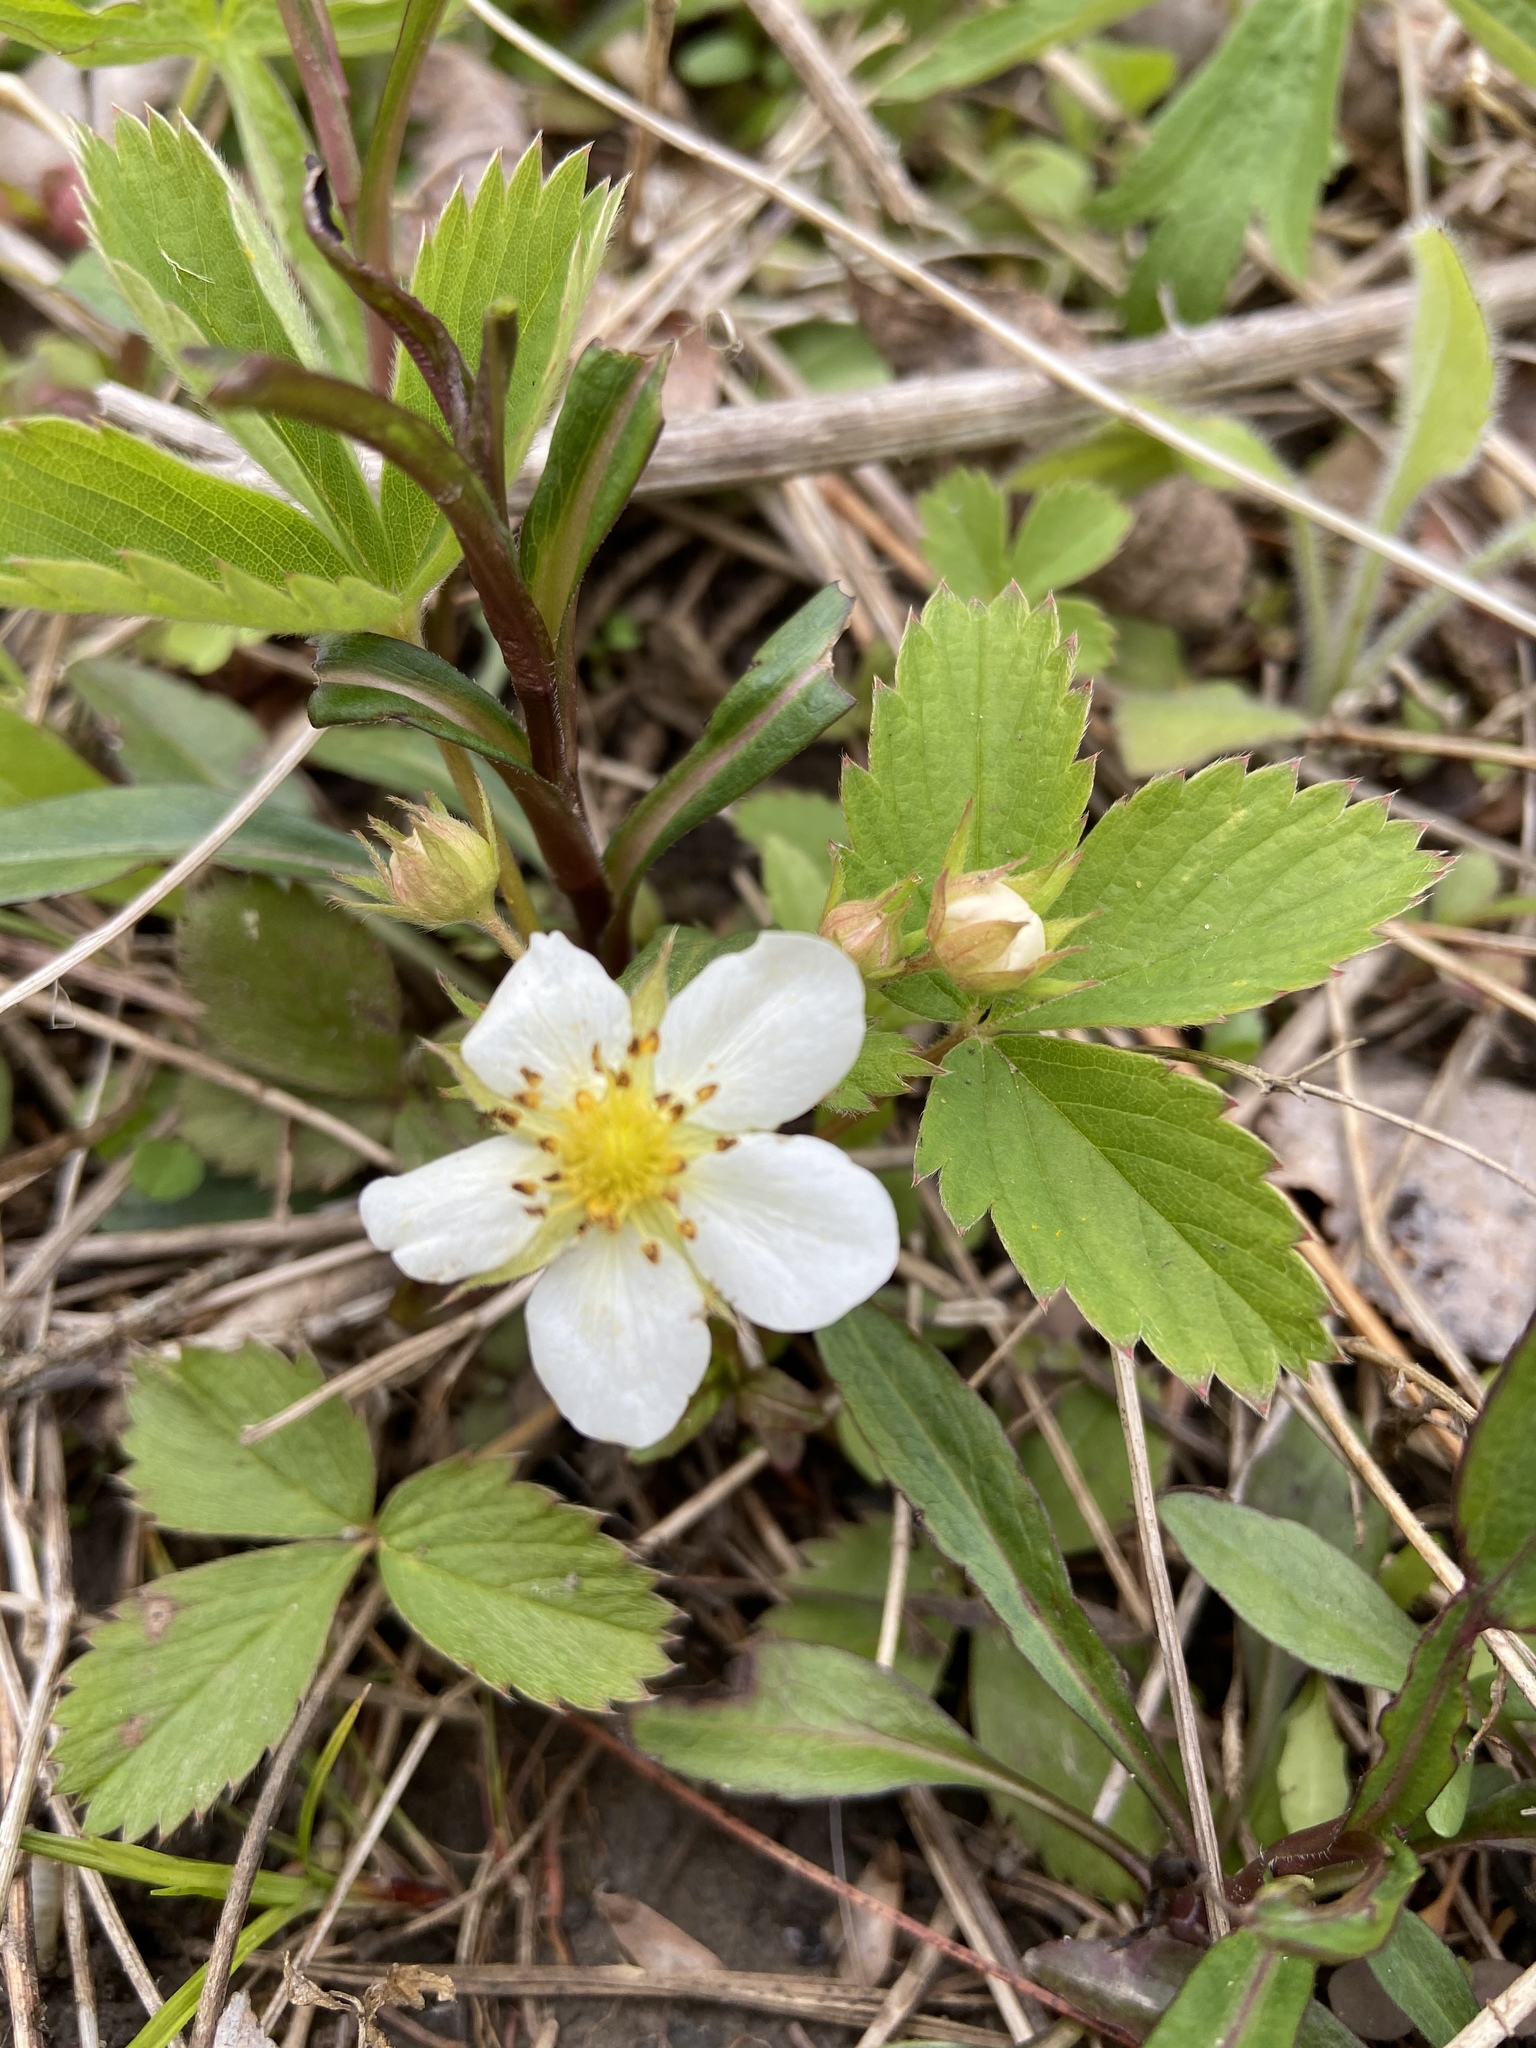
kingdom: Plantae
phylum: Tracheophyta
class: Magnoliopsida
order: Rosales
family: Rosaceae
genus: Fragaria
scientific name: Fragaria virginiana
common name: Thickleaved wild strawberry
